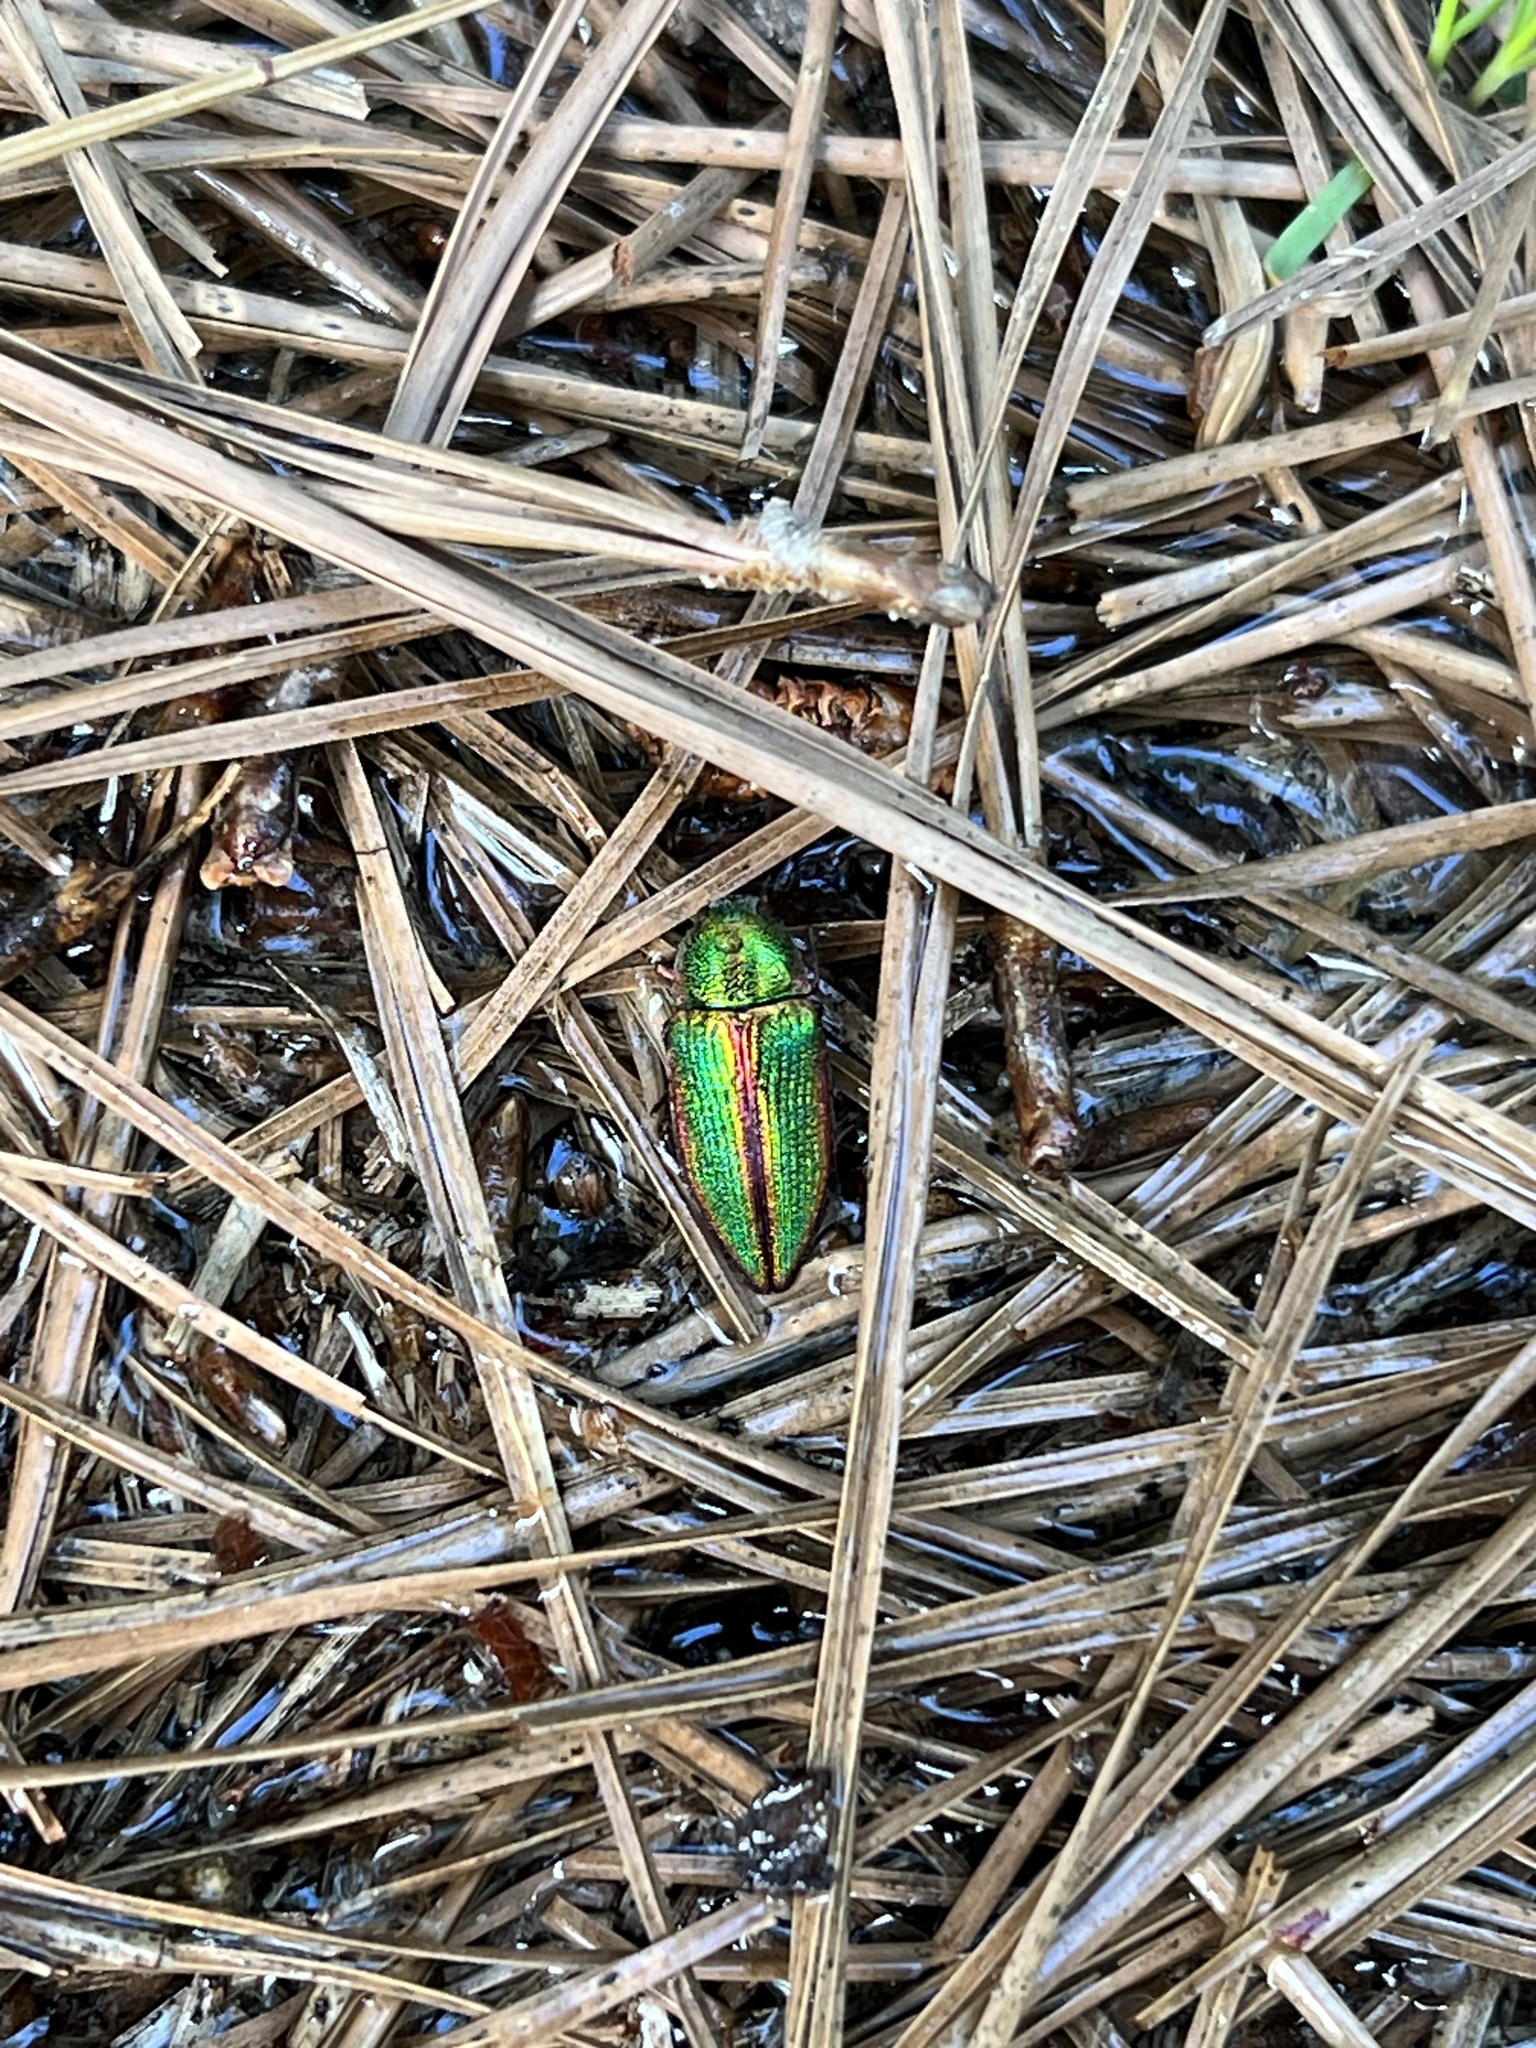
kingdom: Animalia
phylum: Arthropoda
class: Insecta
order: Coleoptera
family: Buprestidae
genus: Buprestis
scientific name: Buprestis salisburyensis
